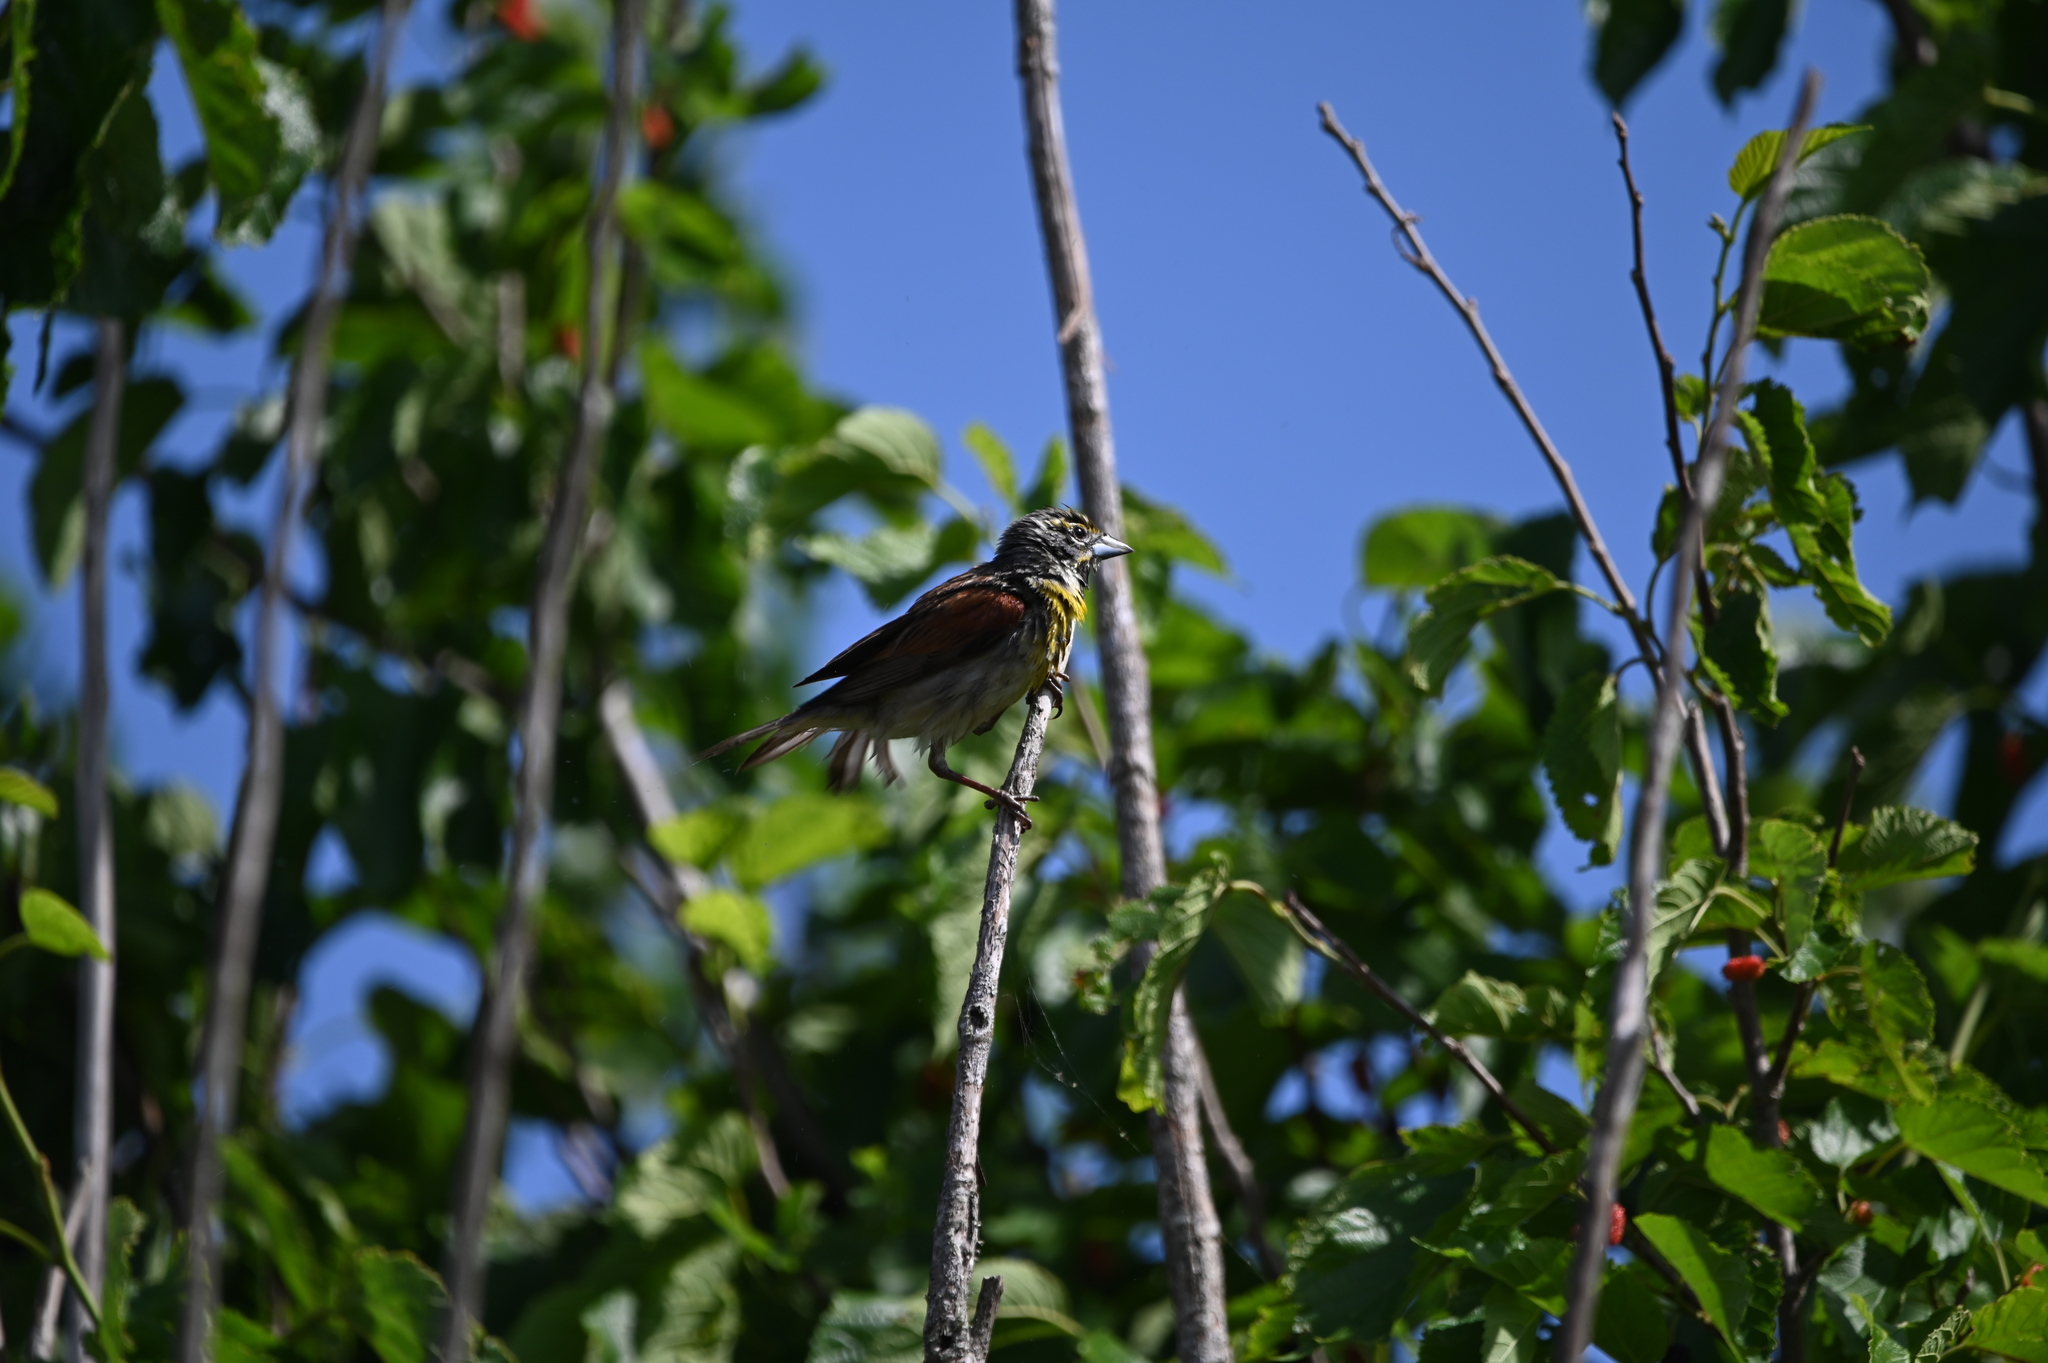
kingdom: Animalia
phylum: Chordata
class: Aves
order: Passeriformes
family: Cardinalidae
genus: Spiza
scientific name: Spiza americana
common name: Dickcissel
